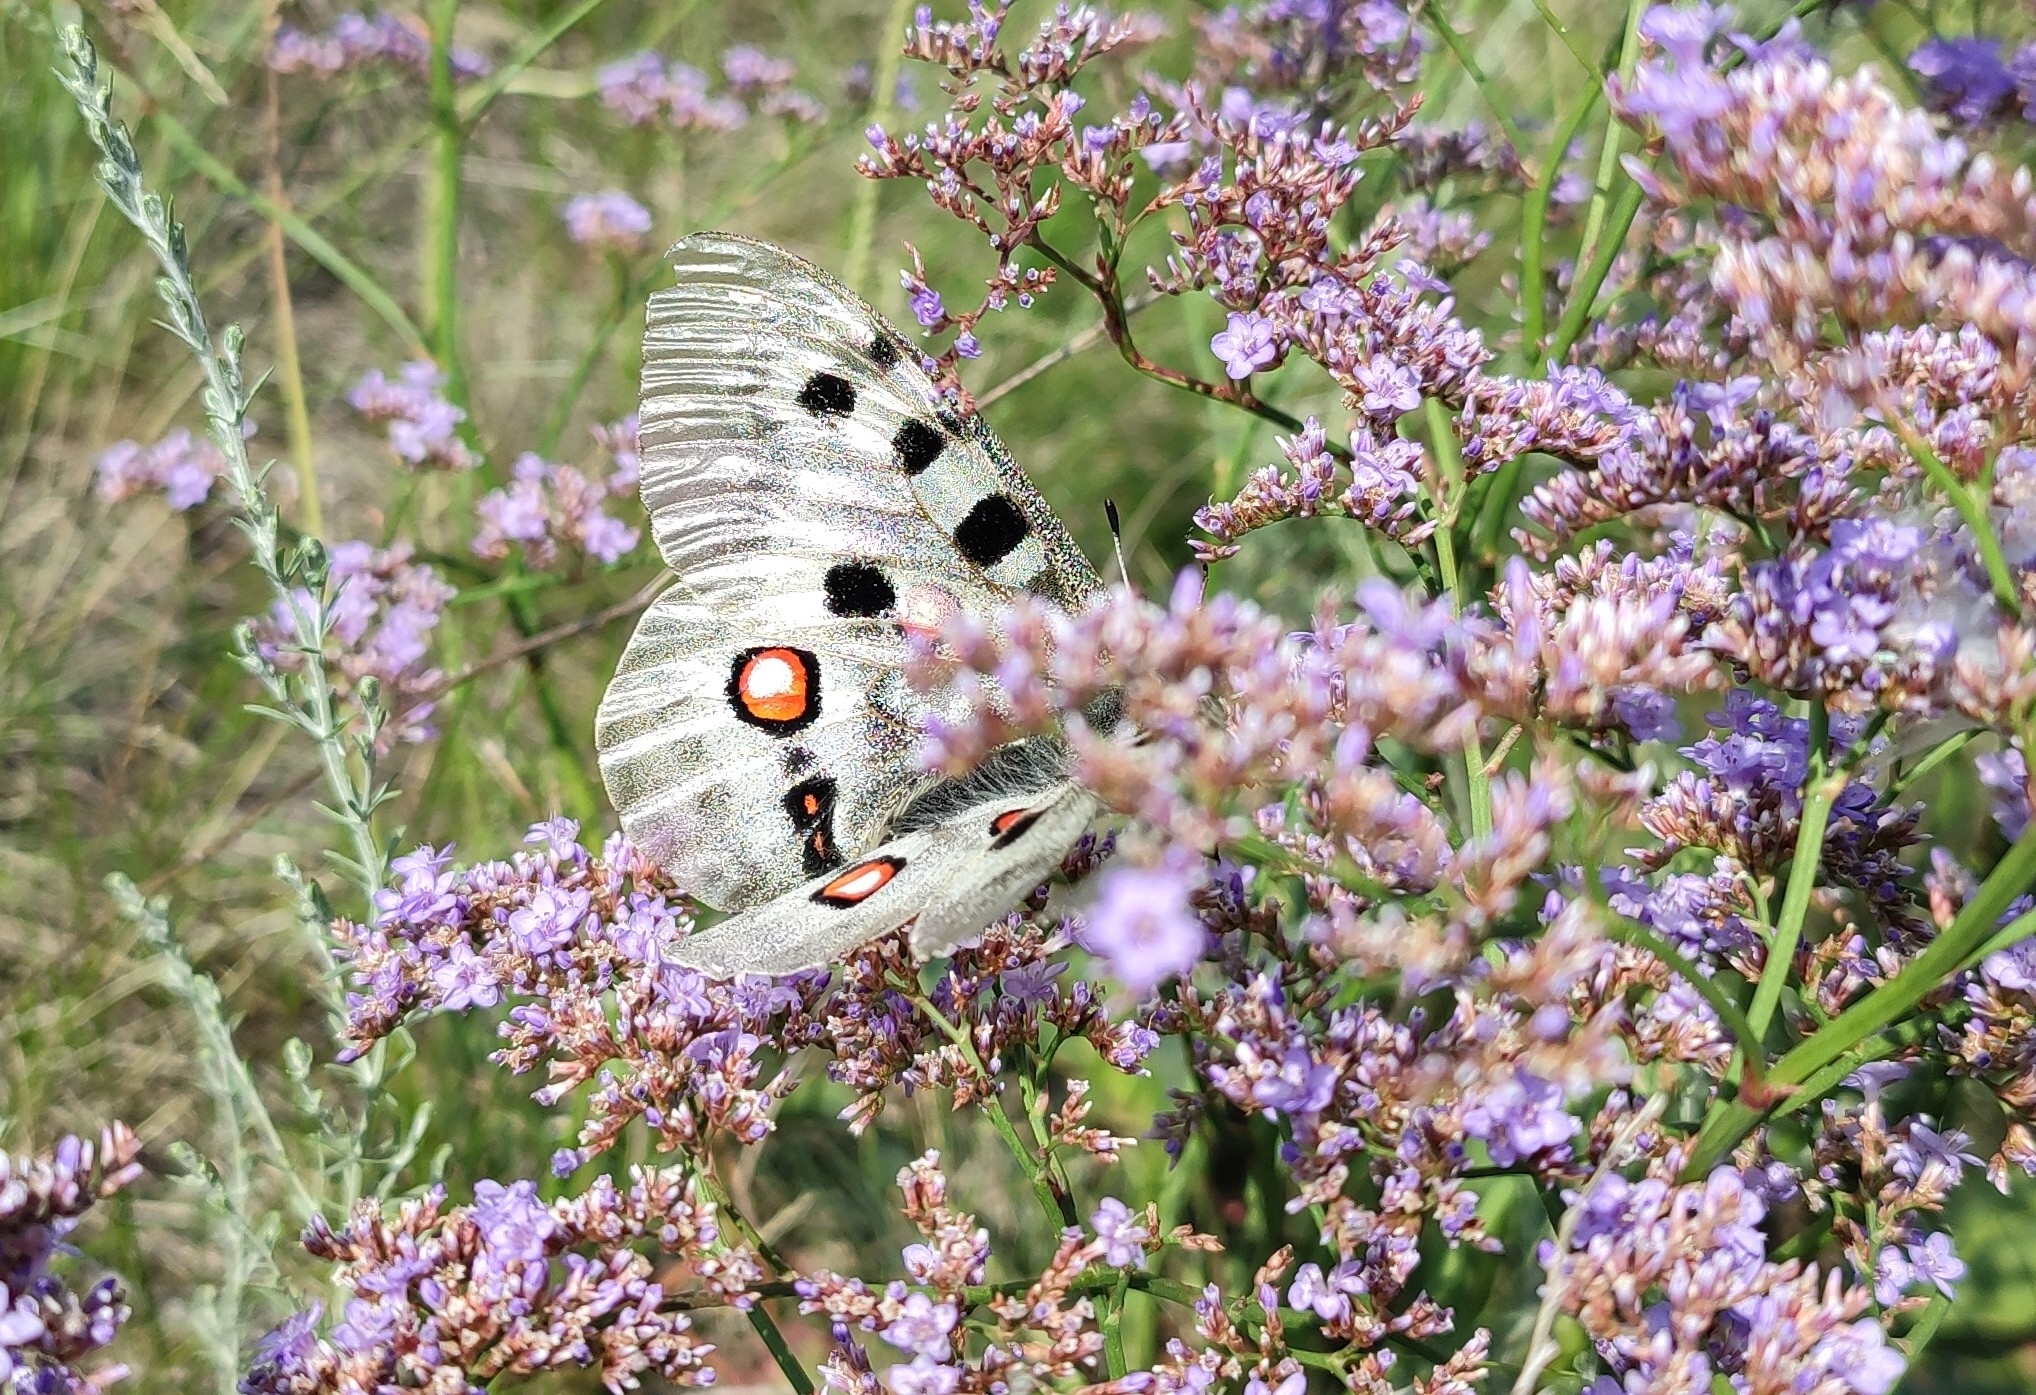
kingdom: Animalia
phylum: Arthropoda
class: Insecta
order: Lepidoptera
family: Papilionidae
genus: Parnassius
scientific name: Parnassius apollo
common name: Apollo
